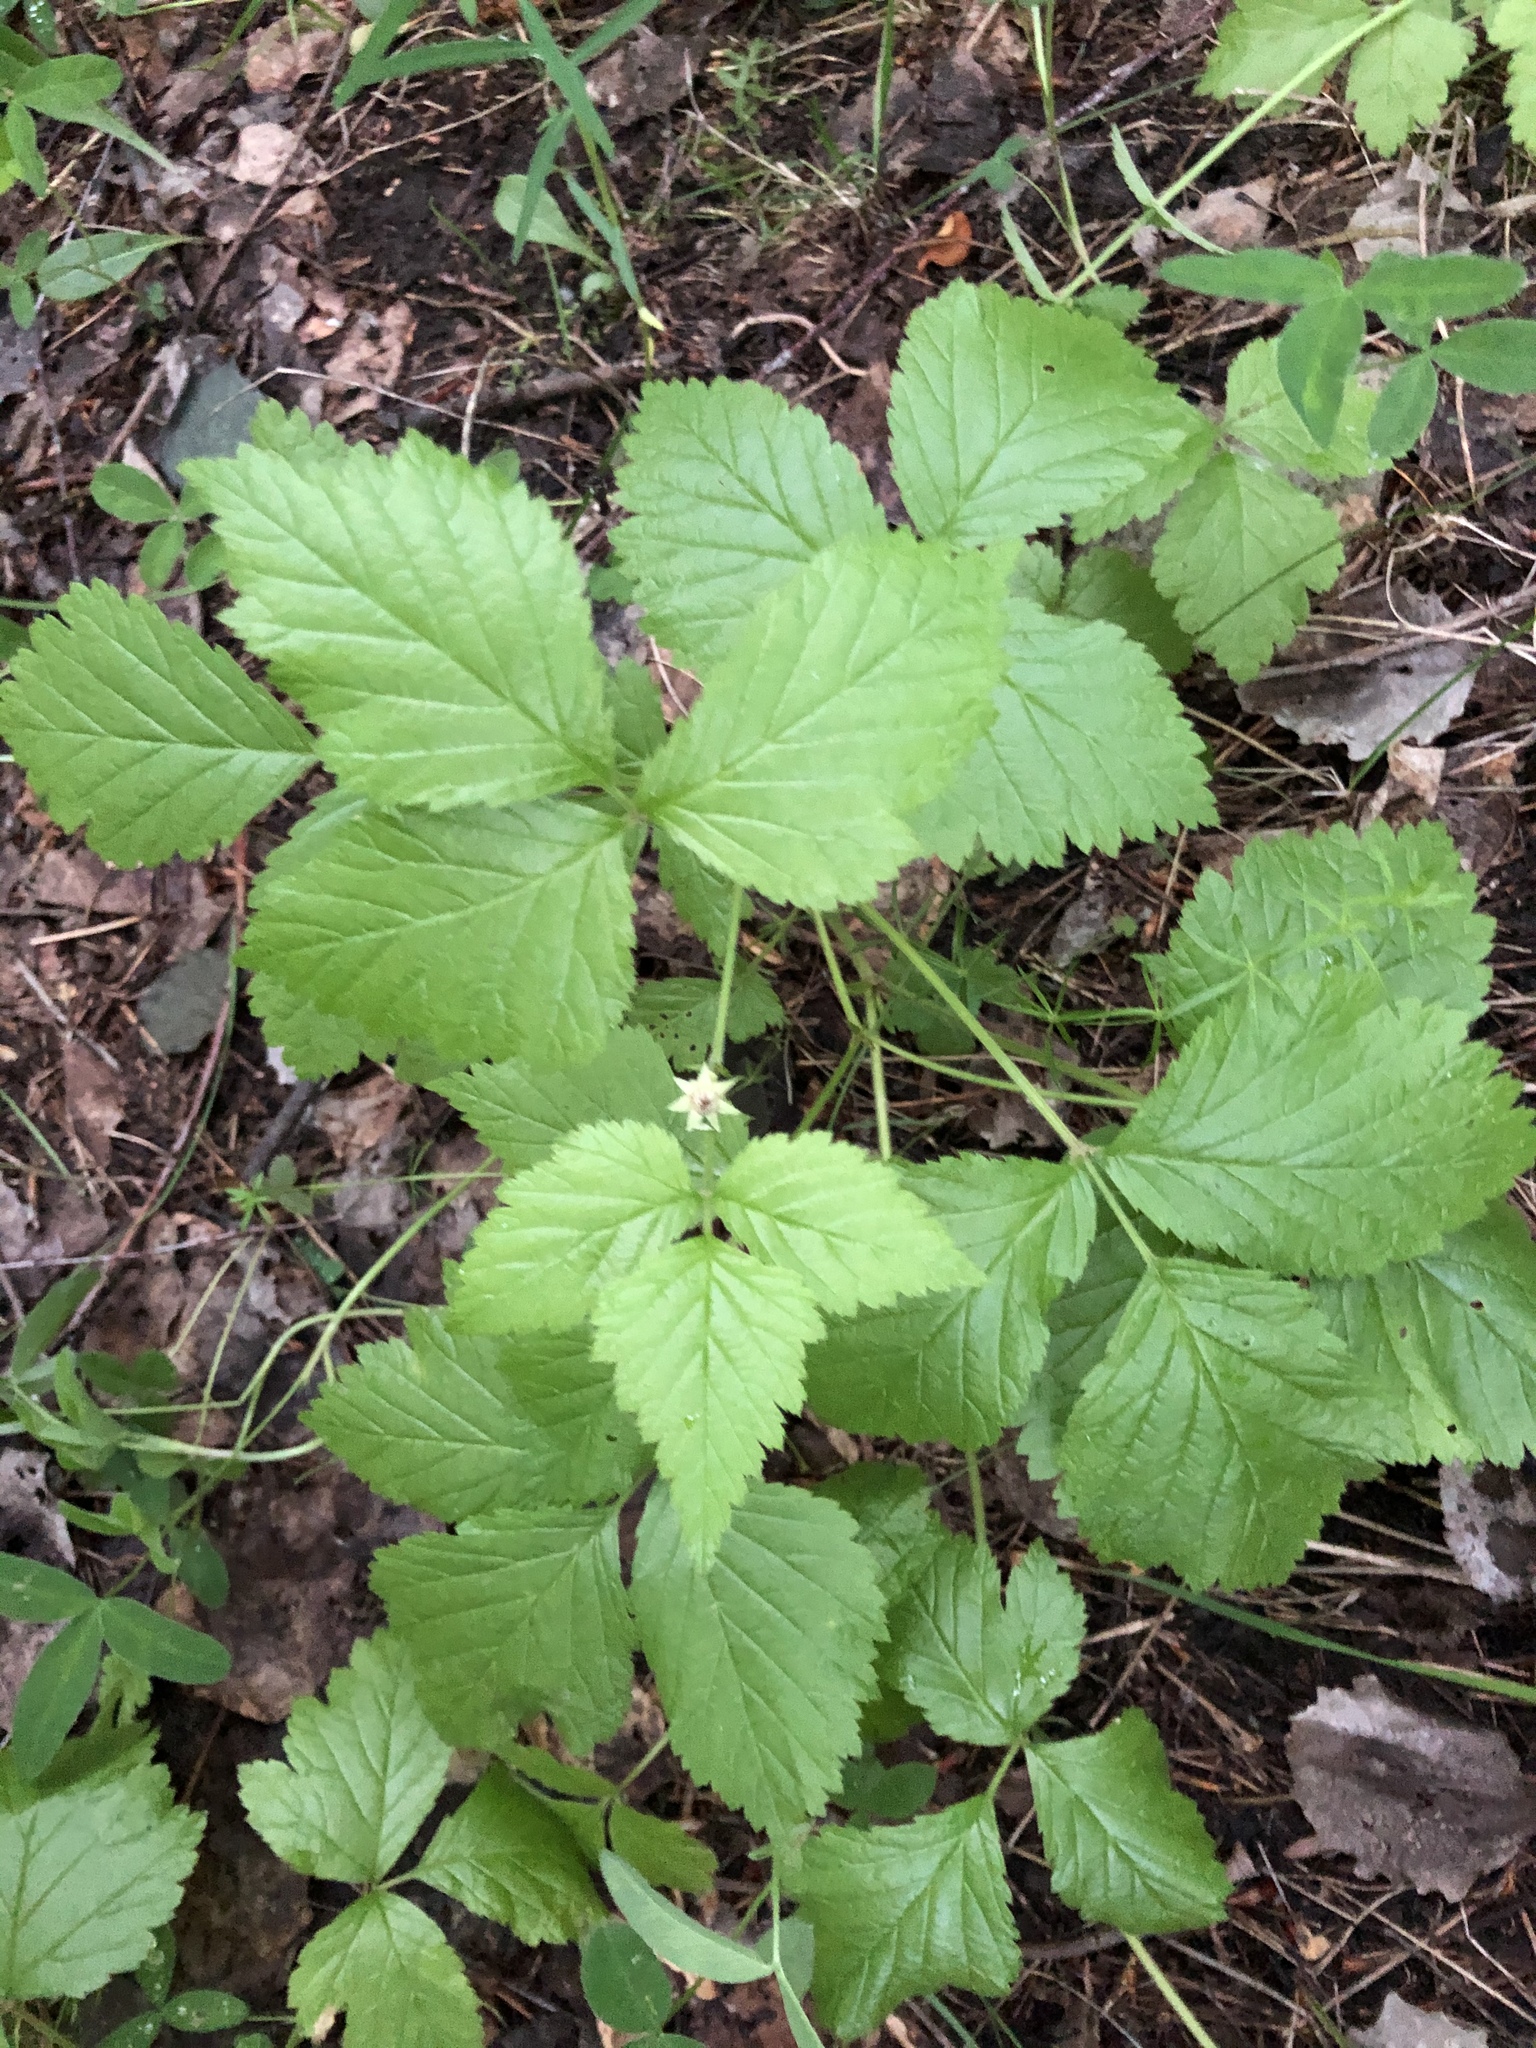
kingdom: Plantae
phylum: Tracheophyta
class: Magnoliopsida
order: Rosales
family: Rosaceae
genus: Rubus
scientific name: Rubus saxatilis
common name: Stone bramble
